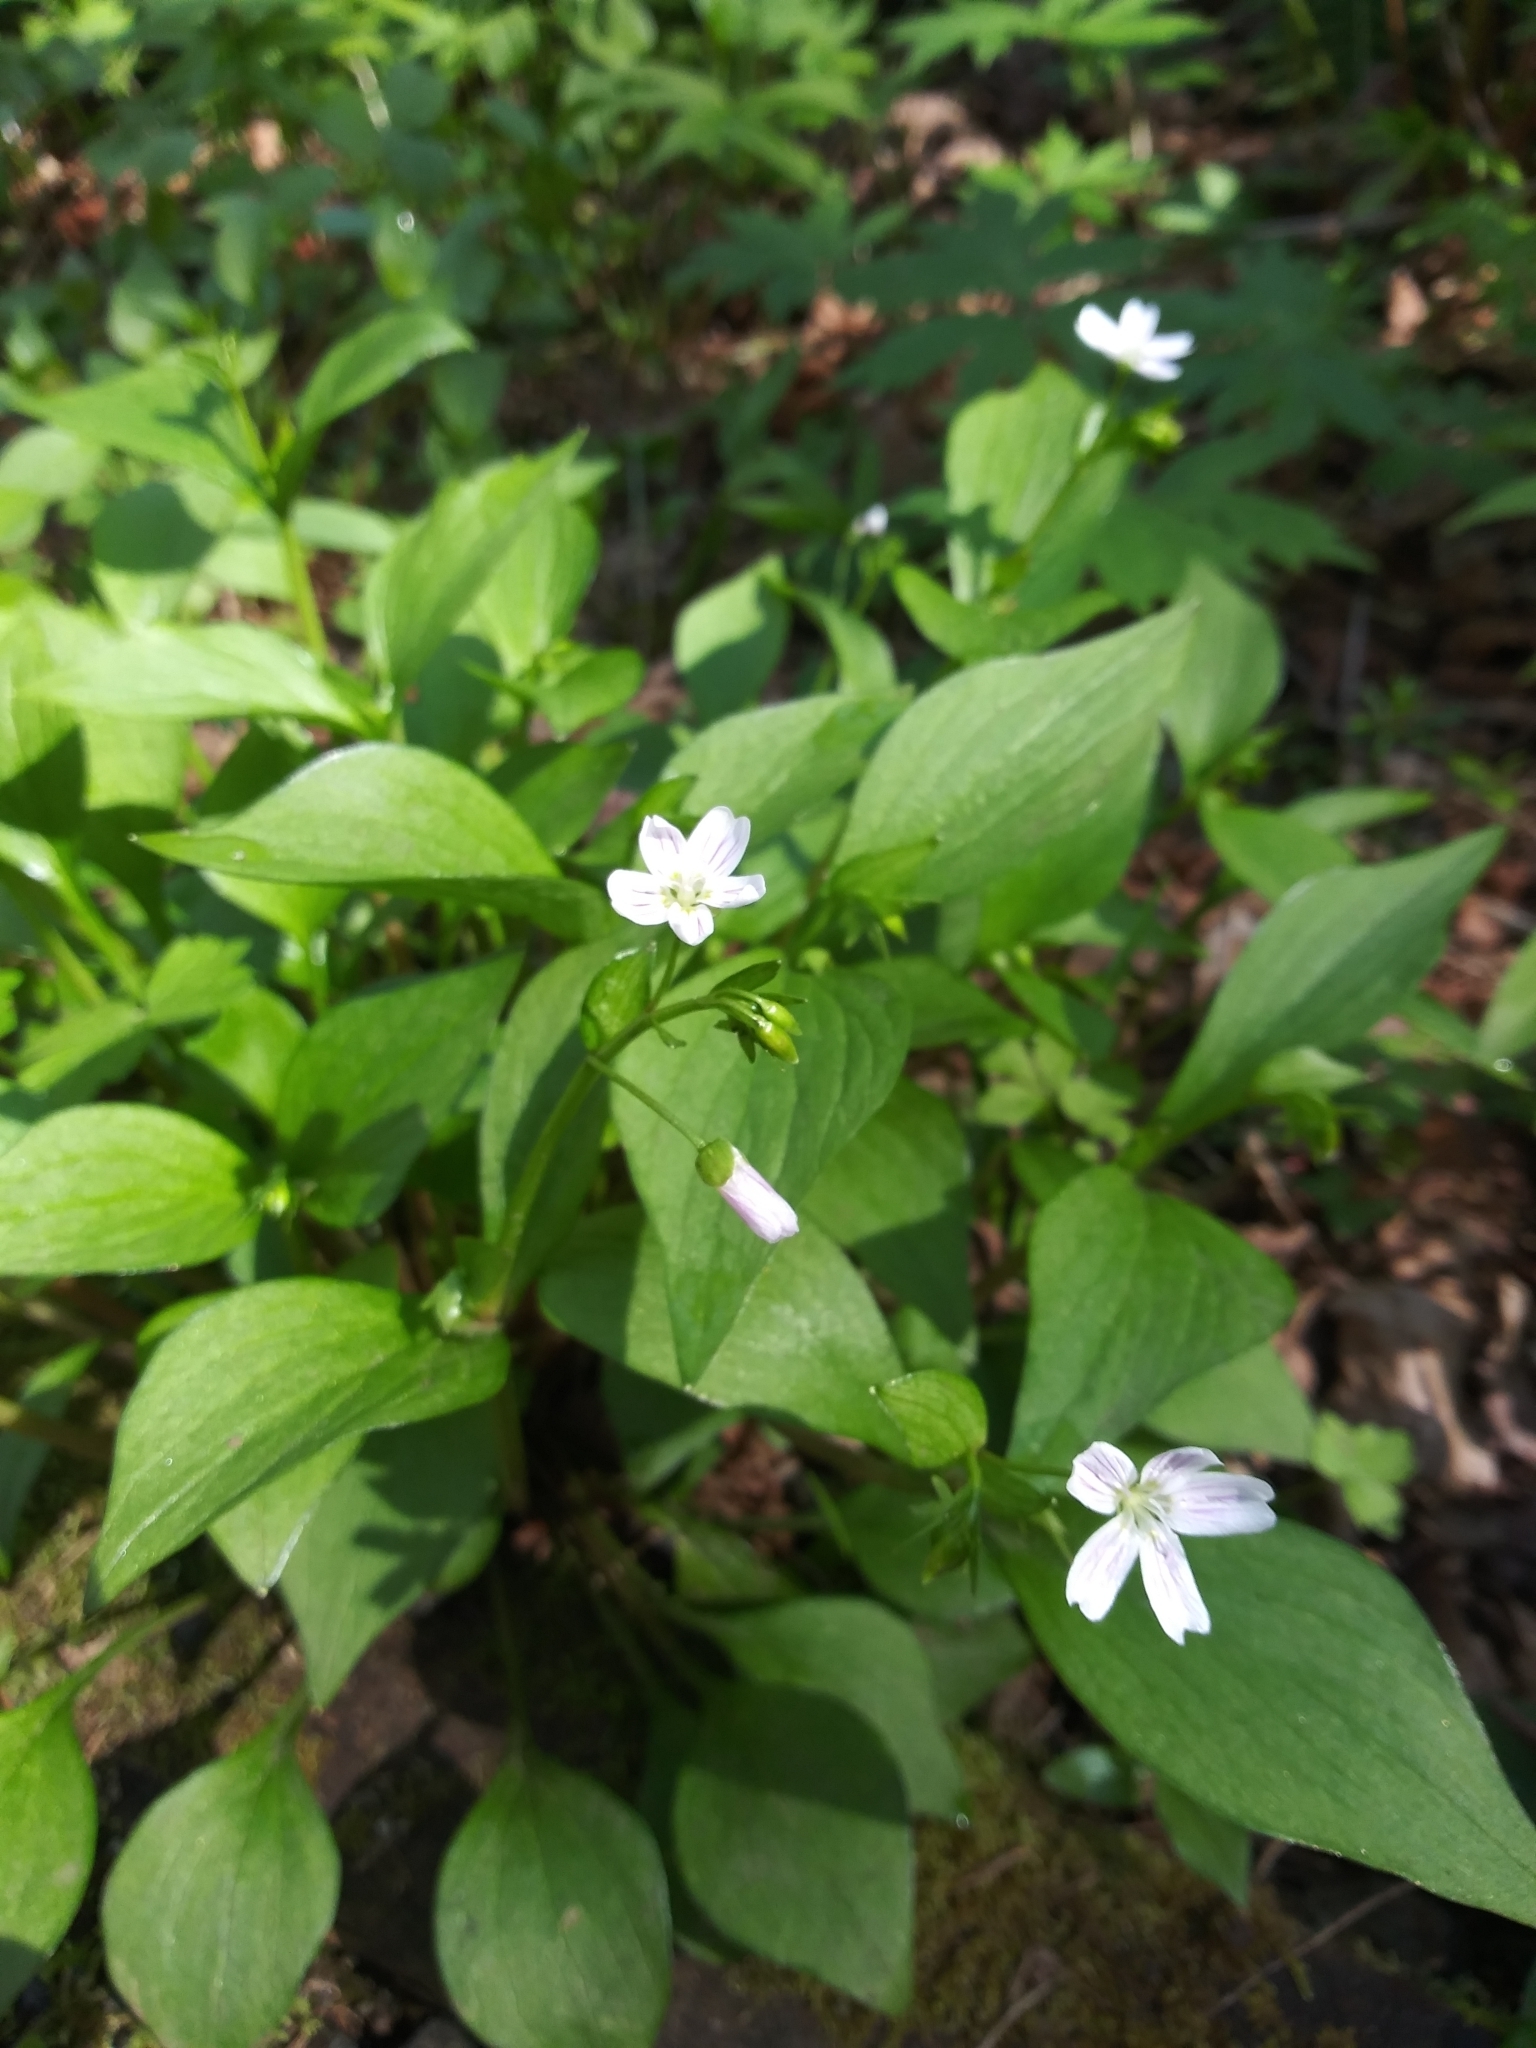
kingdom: Plantae
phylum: Tracheophyta
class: Magnoliopsida
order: Caryophyllales
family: Montiaceae
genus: Claytonia
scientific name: Claytonia sibirica
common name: Pink purslane
